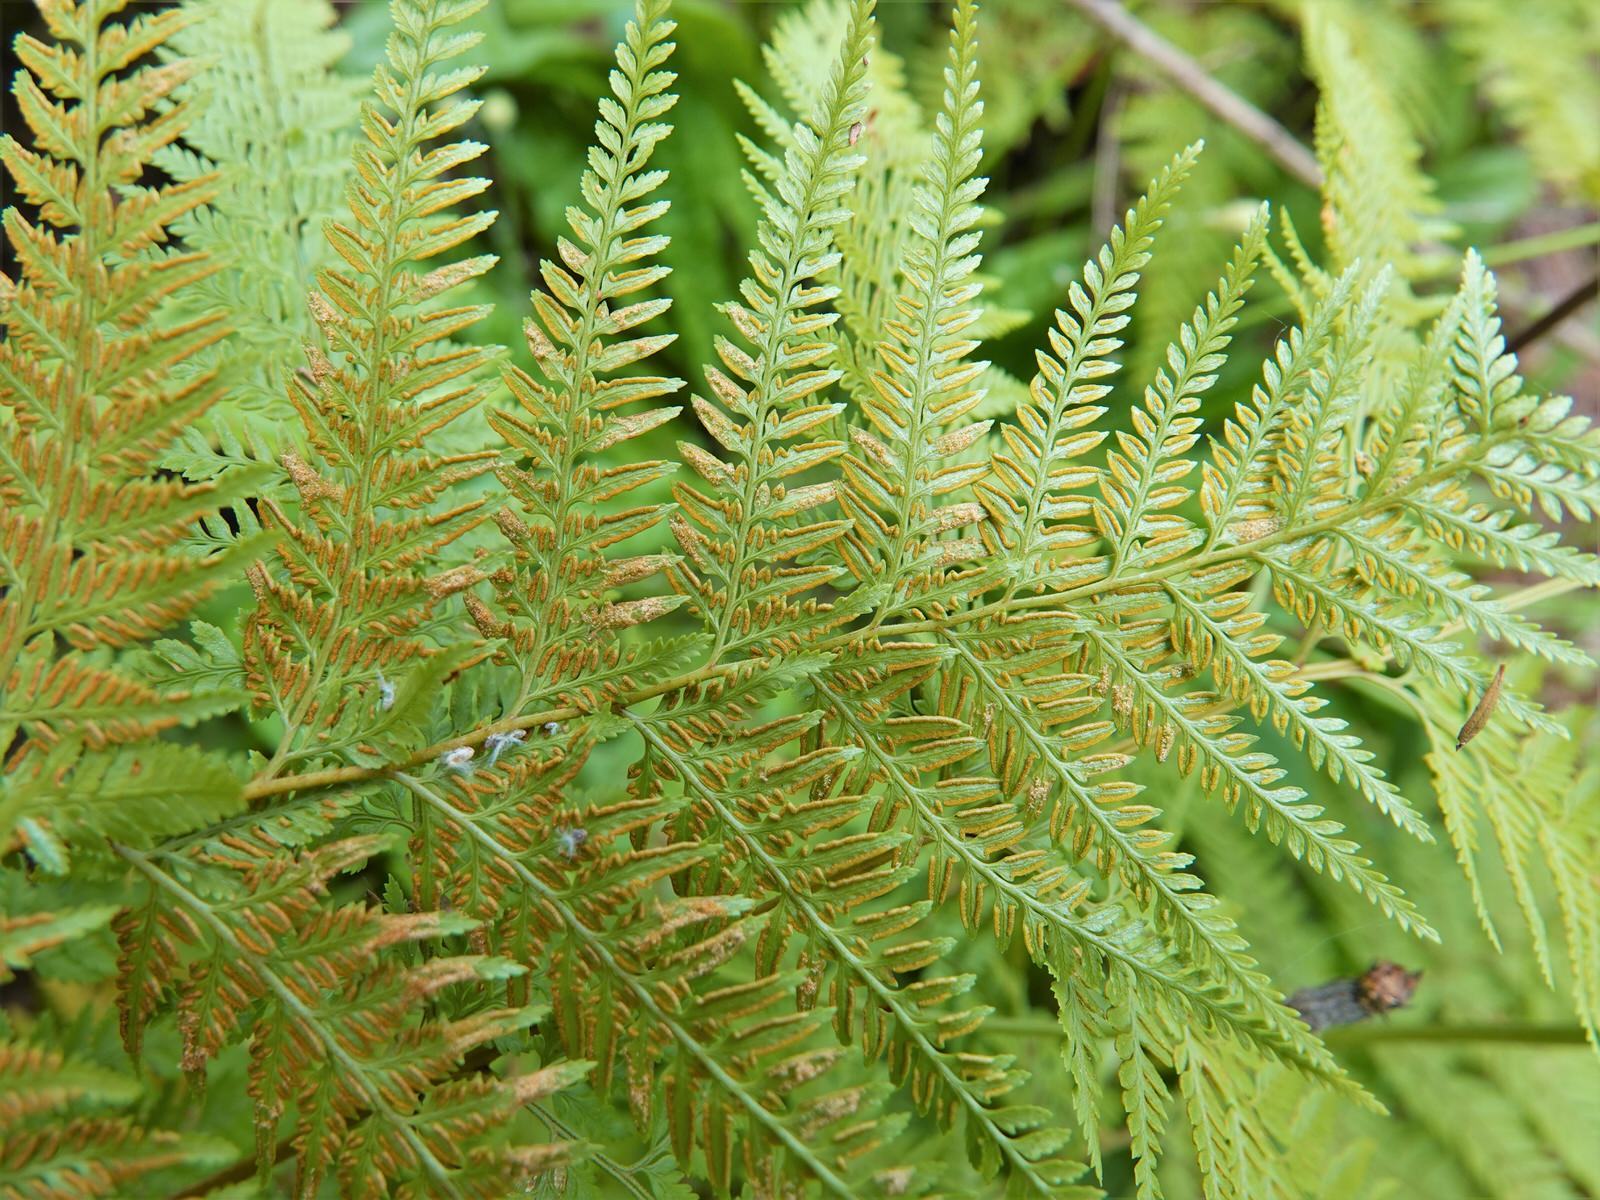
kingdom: Plantae
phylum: Tracheophyta
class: Polypodiopsida
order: Polypodiales
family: Dennstaedtiaceae
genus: Paesia
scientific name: Paesia scaberula
